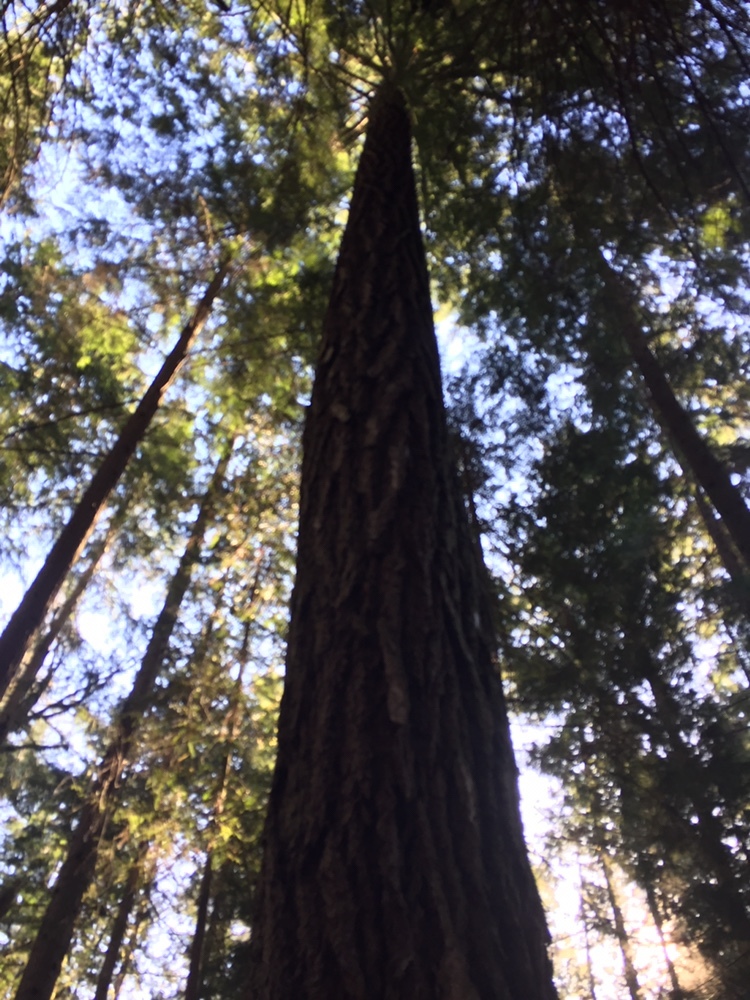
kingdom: Plantae
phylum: Tracheophyta
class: Pinopsida
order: Pinales
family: Pinaceae
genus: Pseudotsuga
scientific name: Pseudotsuga menziesii
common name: Douglas fir
